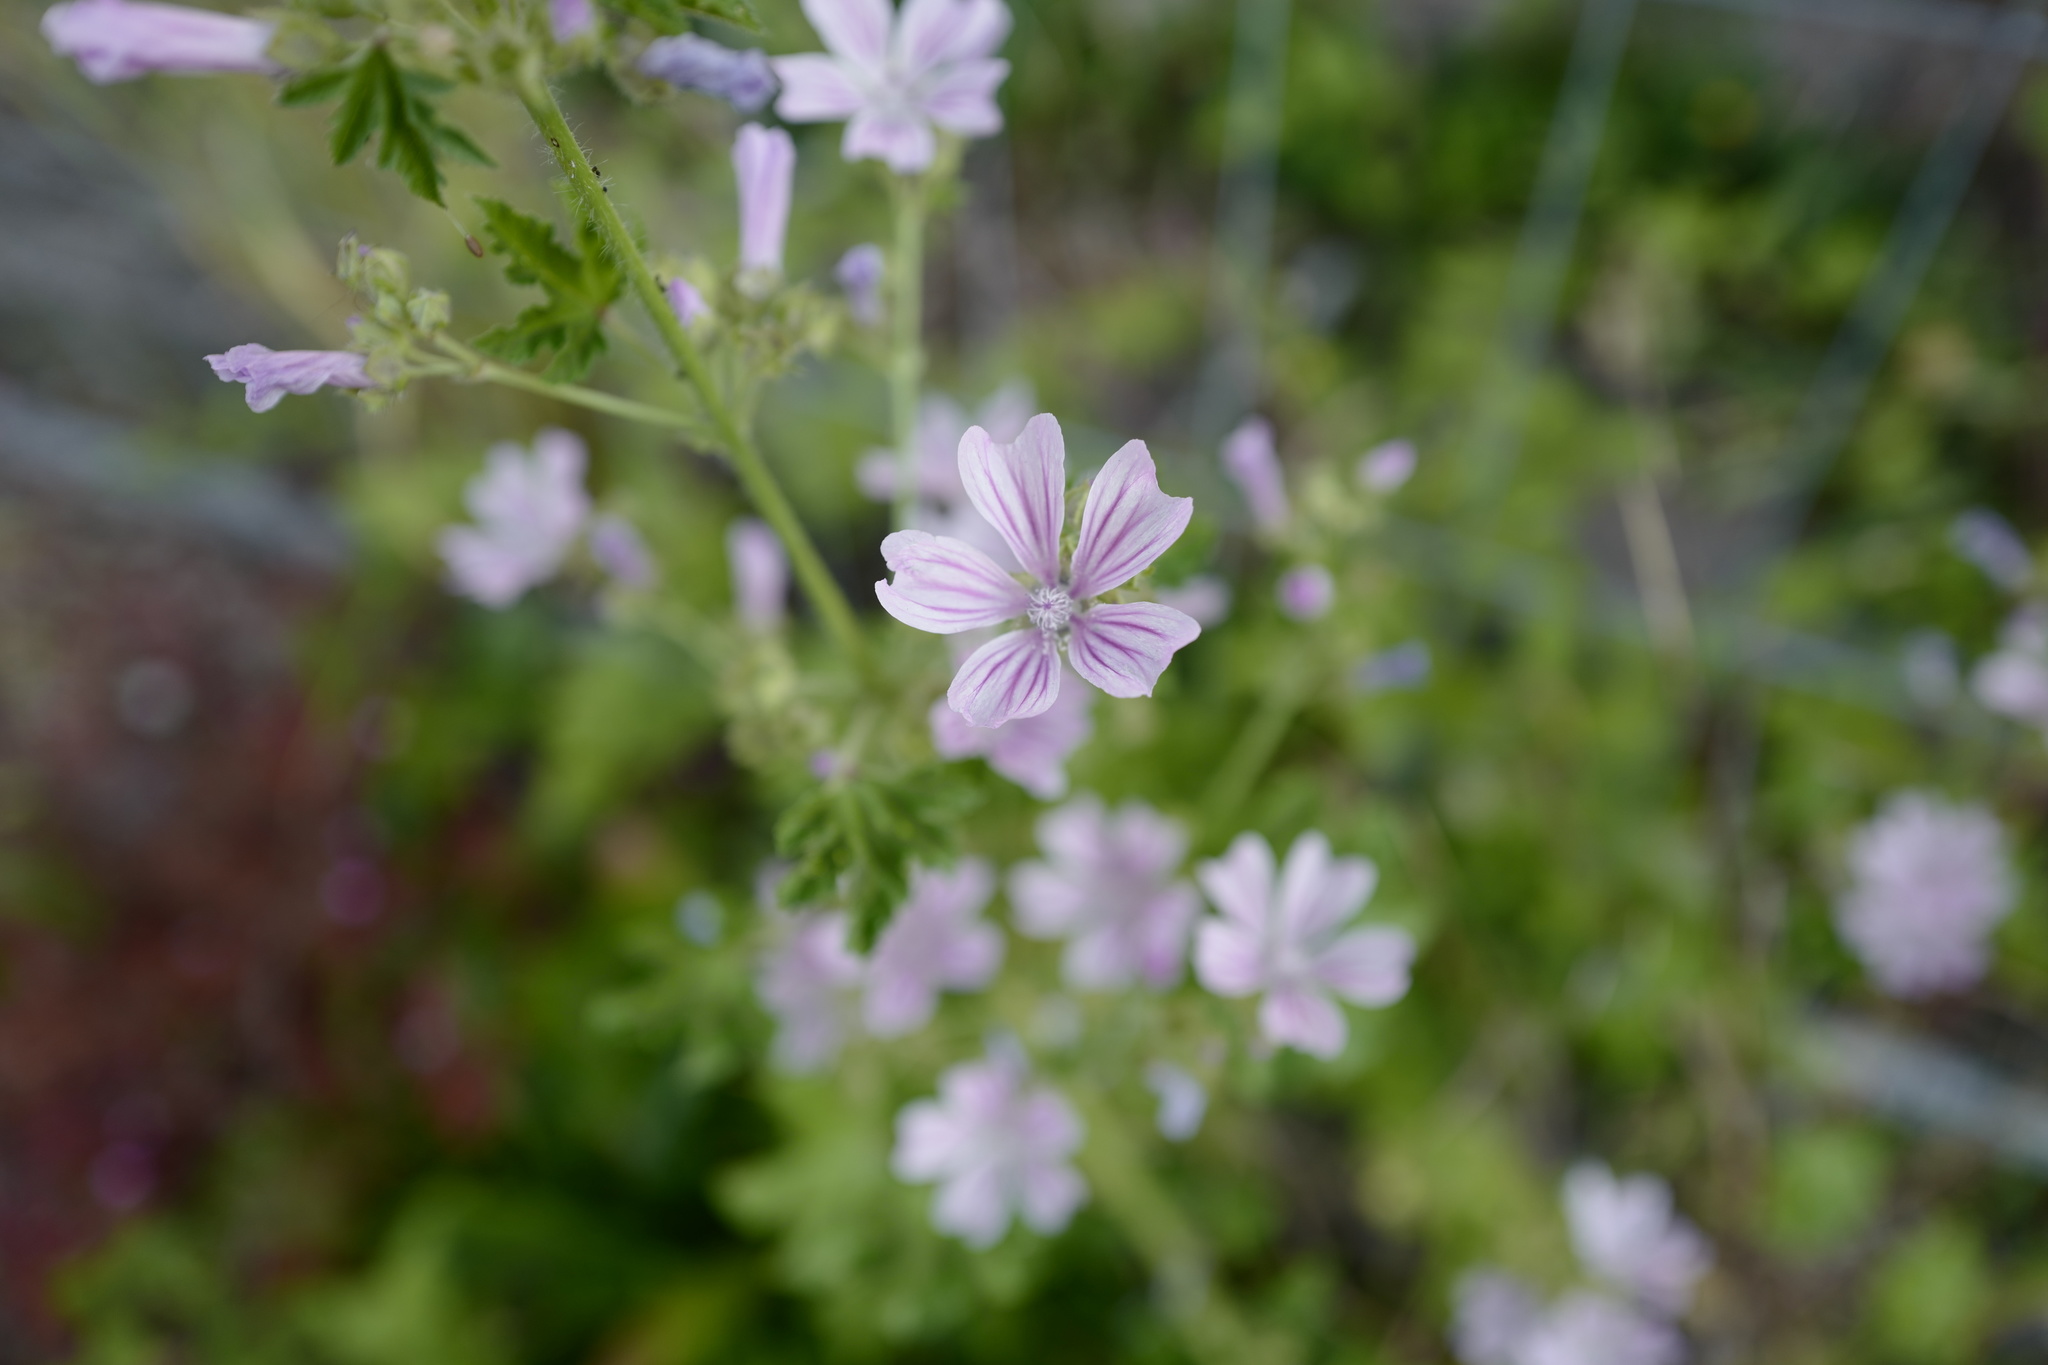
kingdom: Plantae
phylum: Tracheophyta
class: Magnoliopsida
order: Malvales
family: Malvaceae
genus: Malva
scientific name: Malva sylvestris
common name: Common mallow
